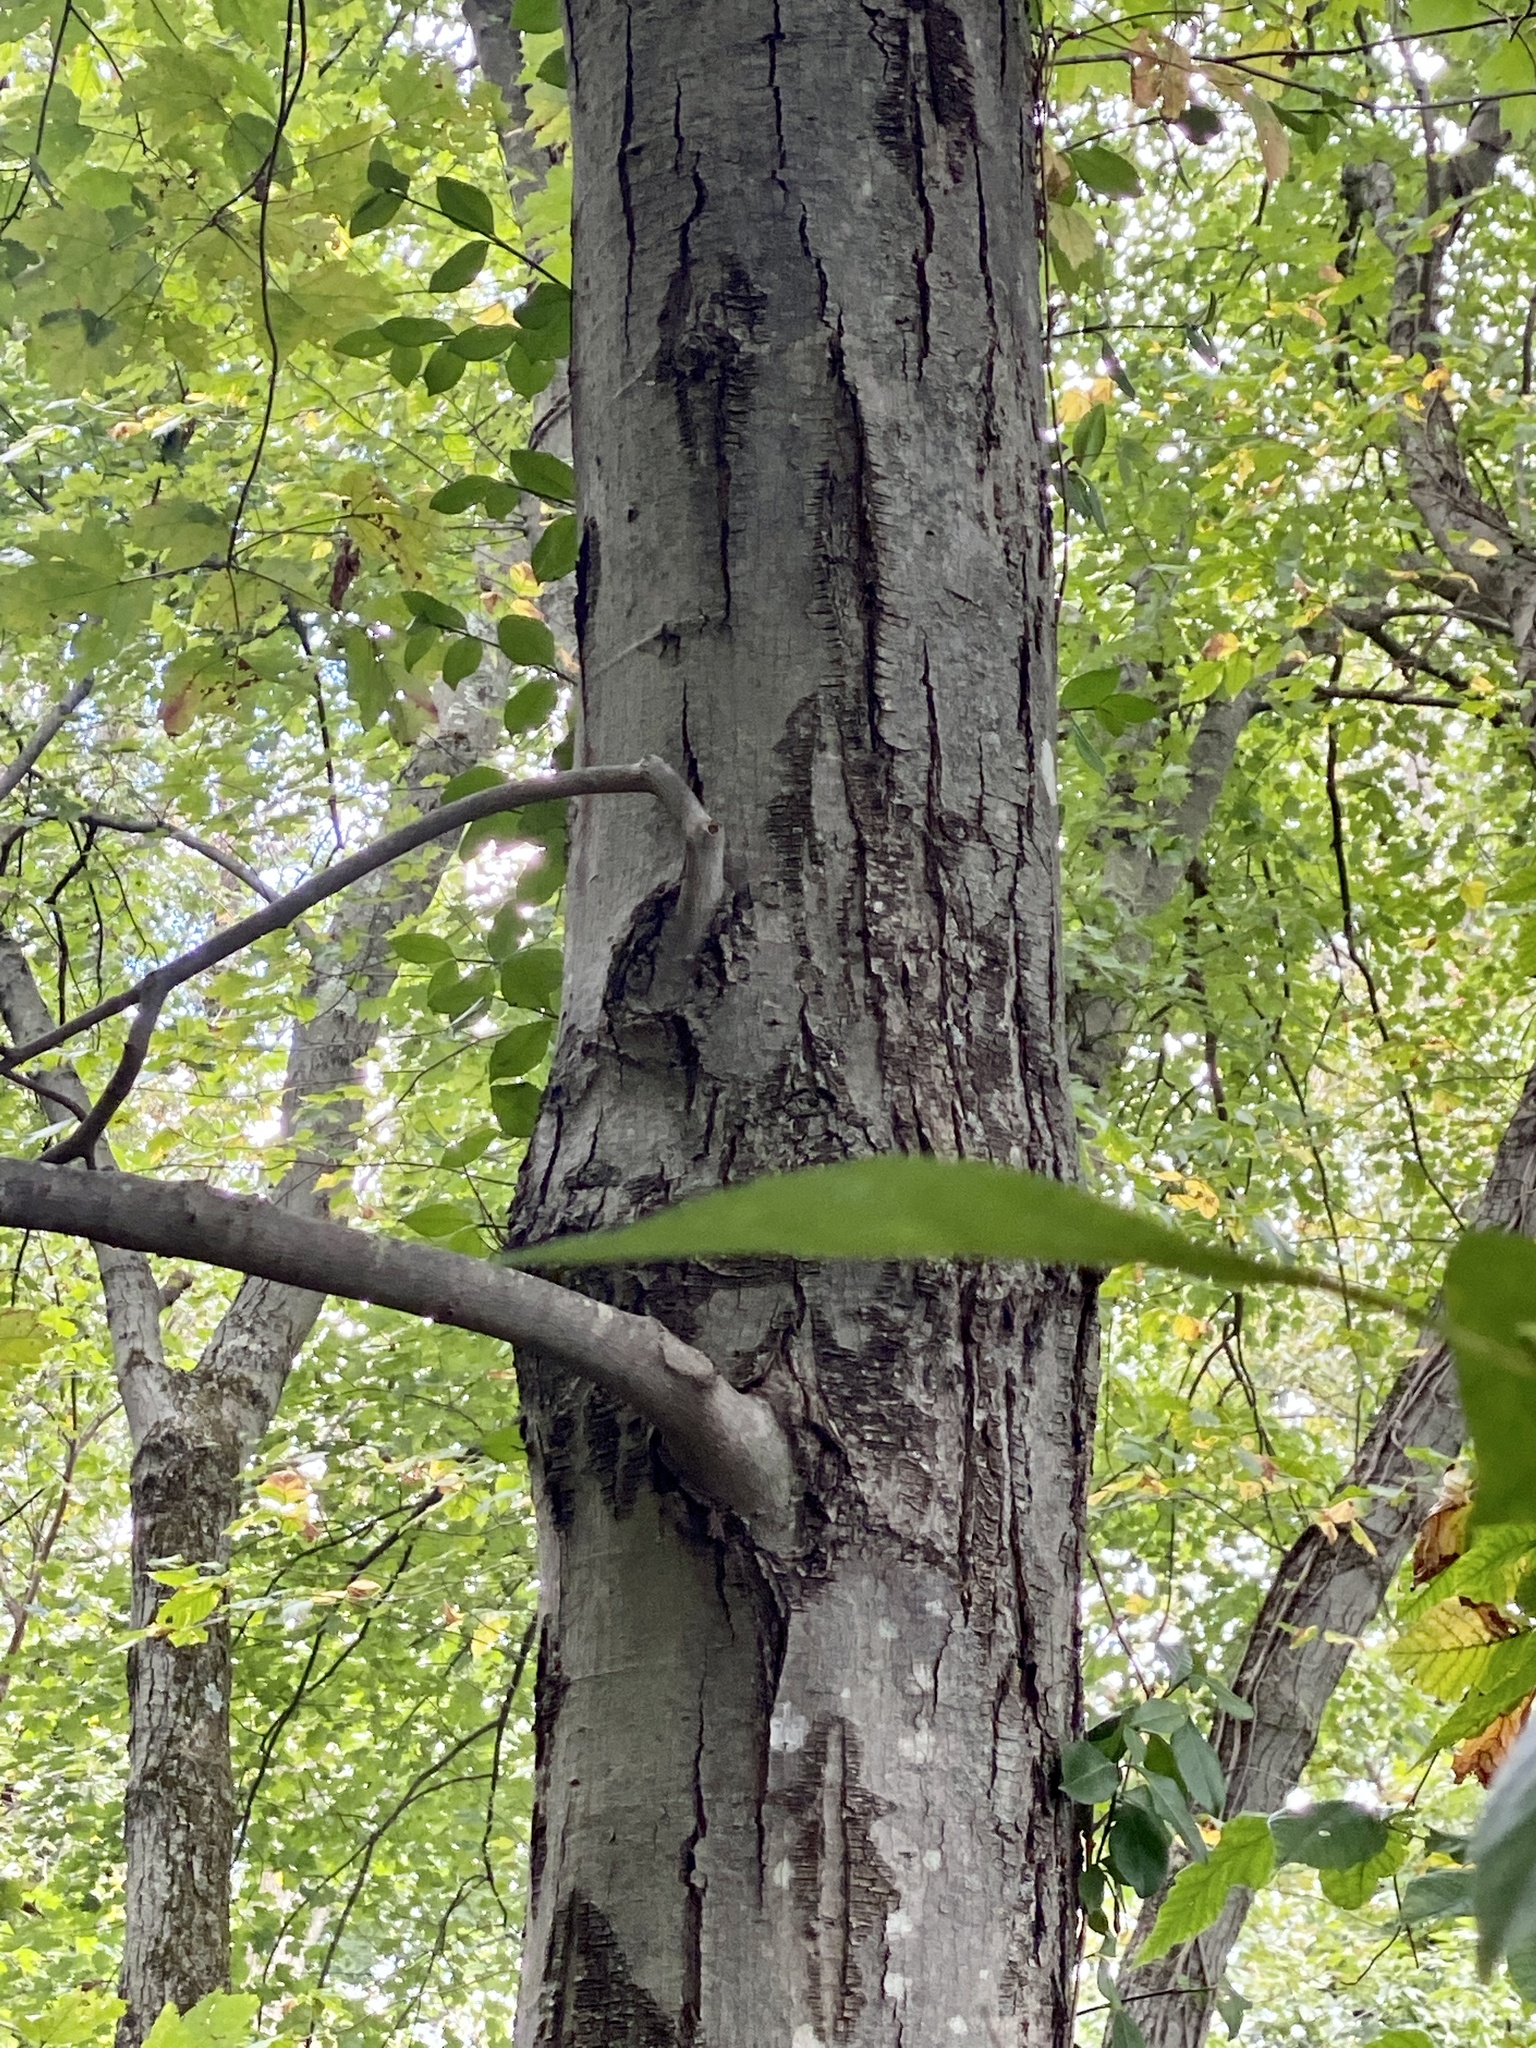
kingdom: Plantae
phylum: Tracheophyta
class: Magnoliopsida
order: Sapindales
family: Sapindaceae
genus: Acer
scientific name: Acer rubrum
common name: Red maple
